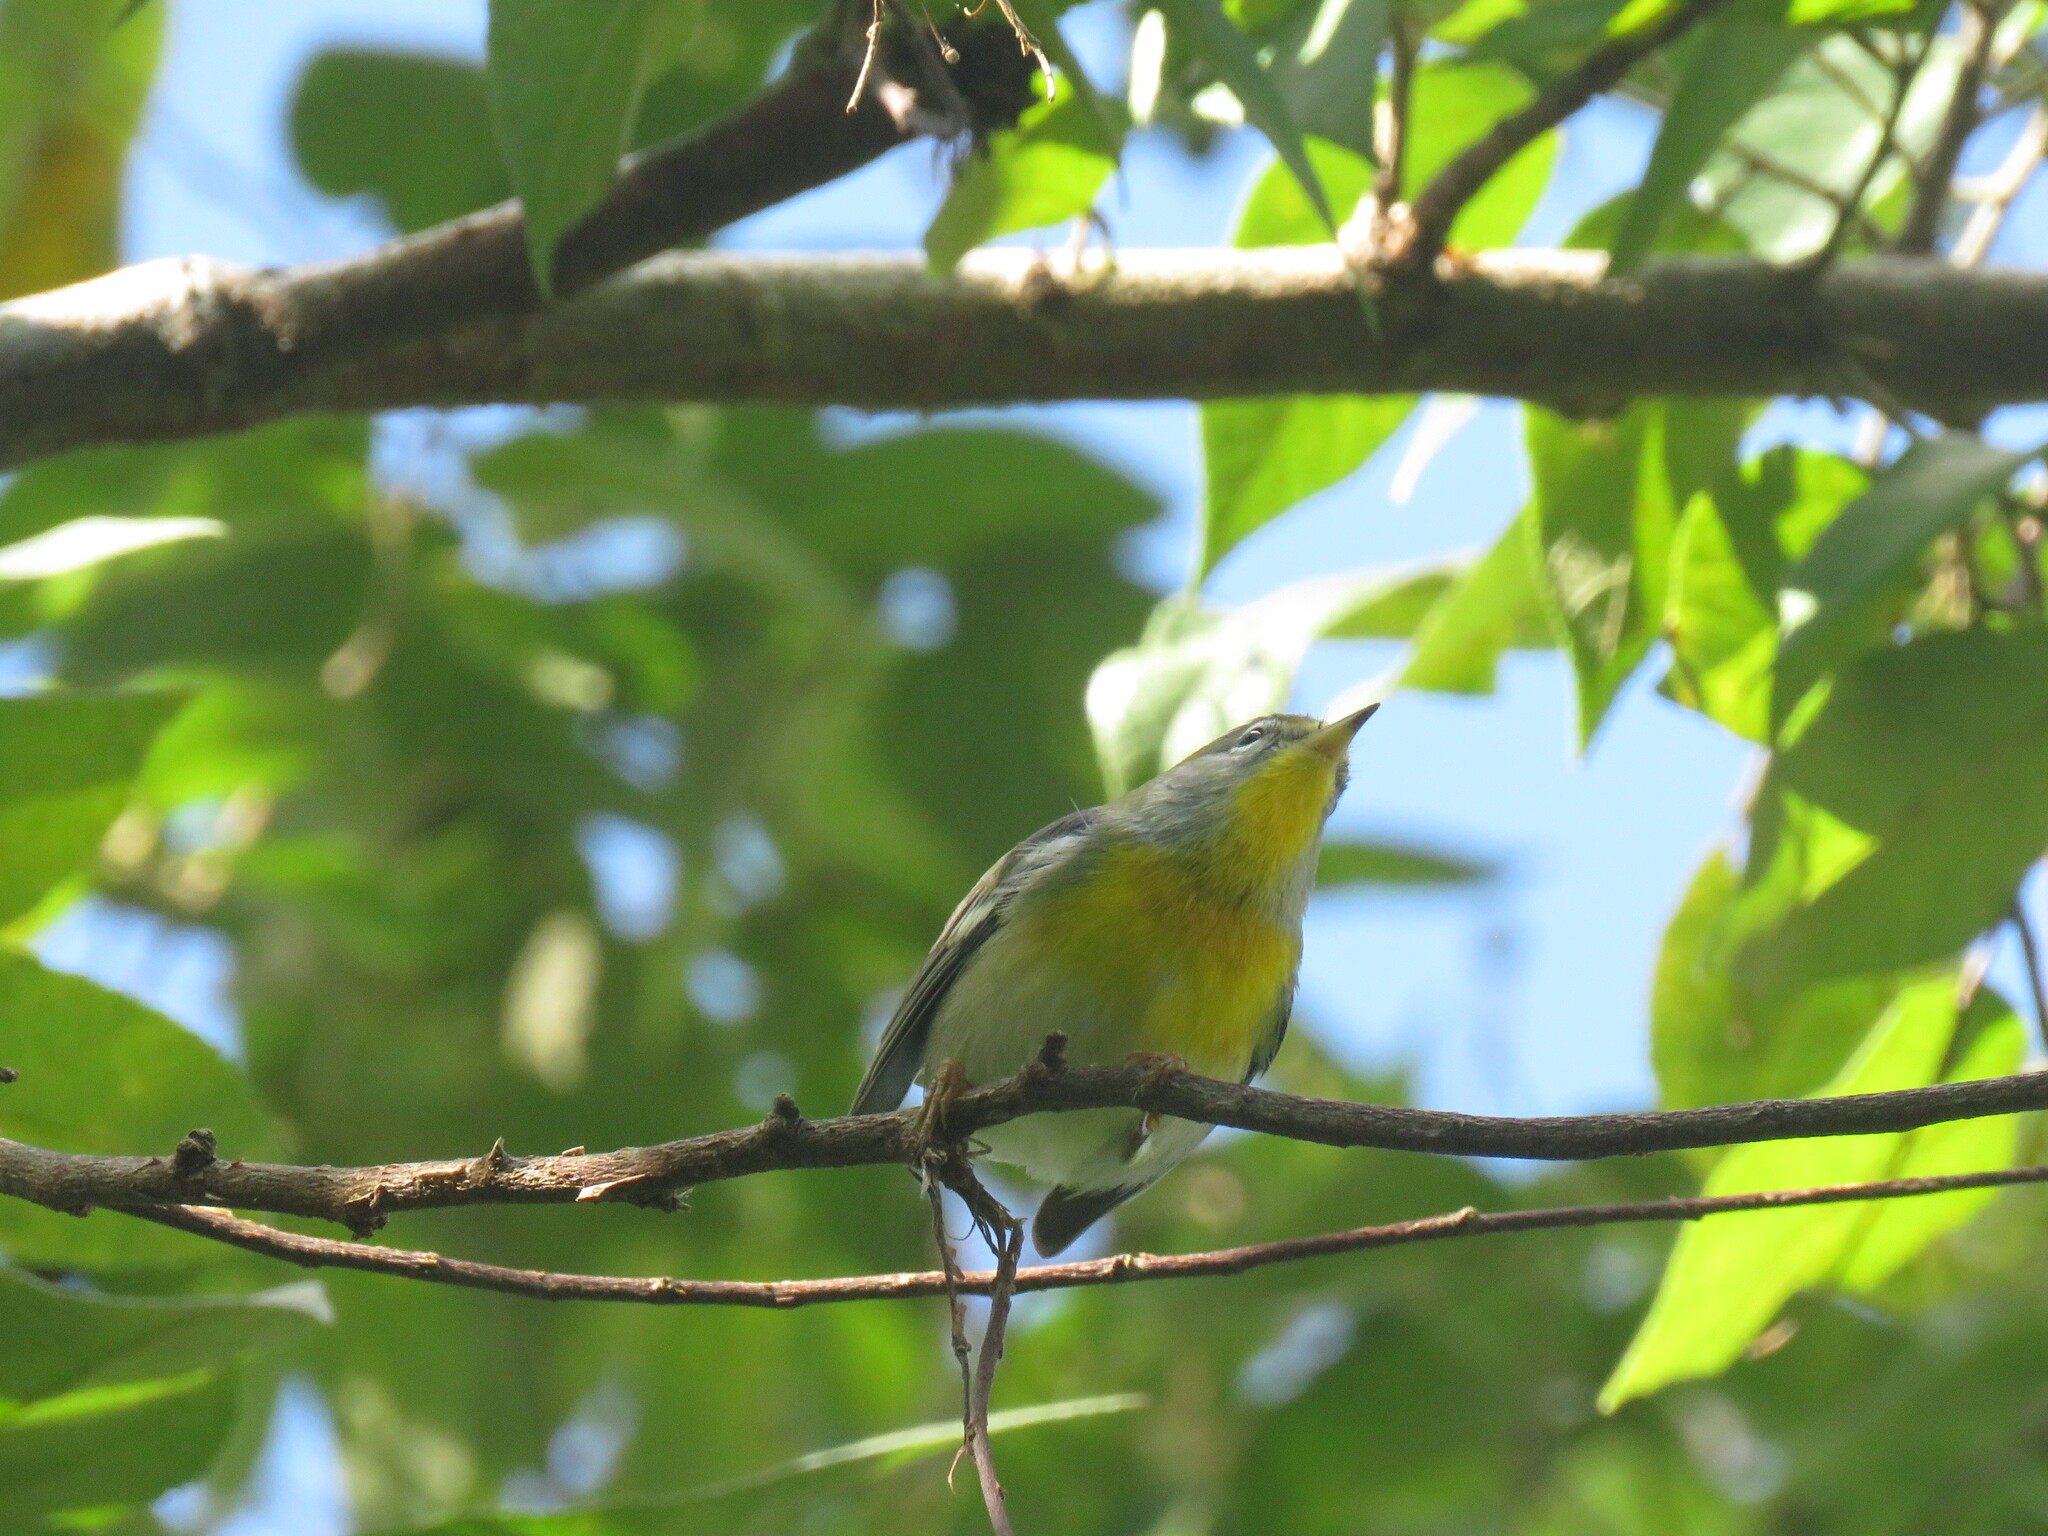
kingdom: Animalia
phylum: Chordata
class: Aves
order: Passeriformes
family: Parulidae
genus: Setophaga
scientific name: Setophaga americana
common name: Northern parula
